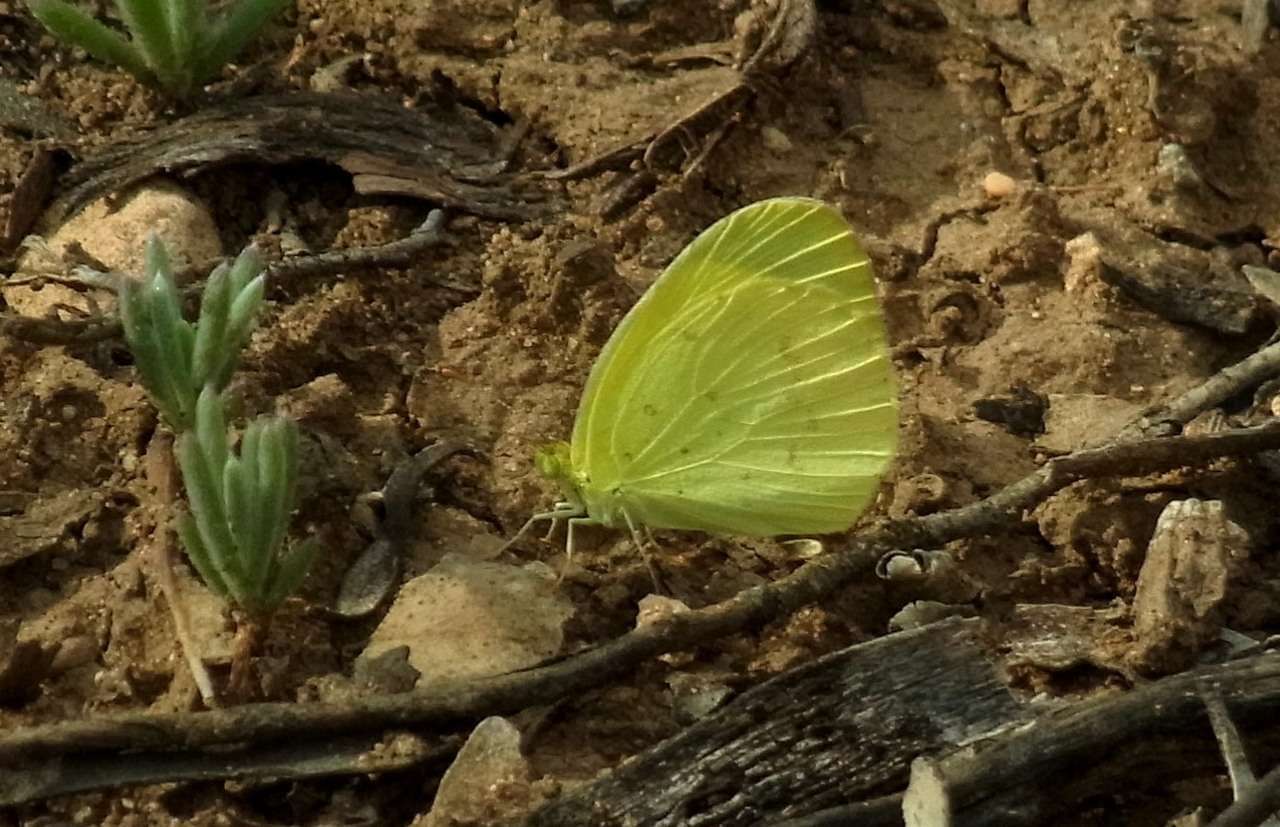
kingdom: Animalia
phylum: Arthropoda
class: Insecta
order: Lepidoptera
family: Pieridae
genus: Eurema
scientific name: Eurema smilax
